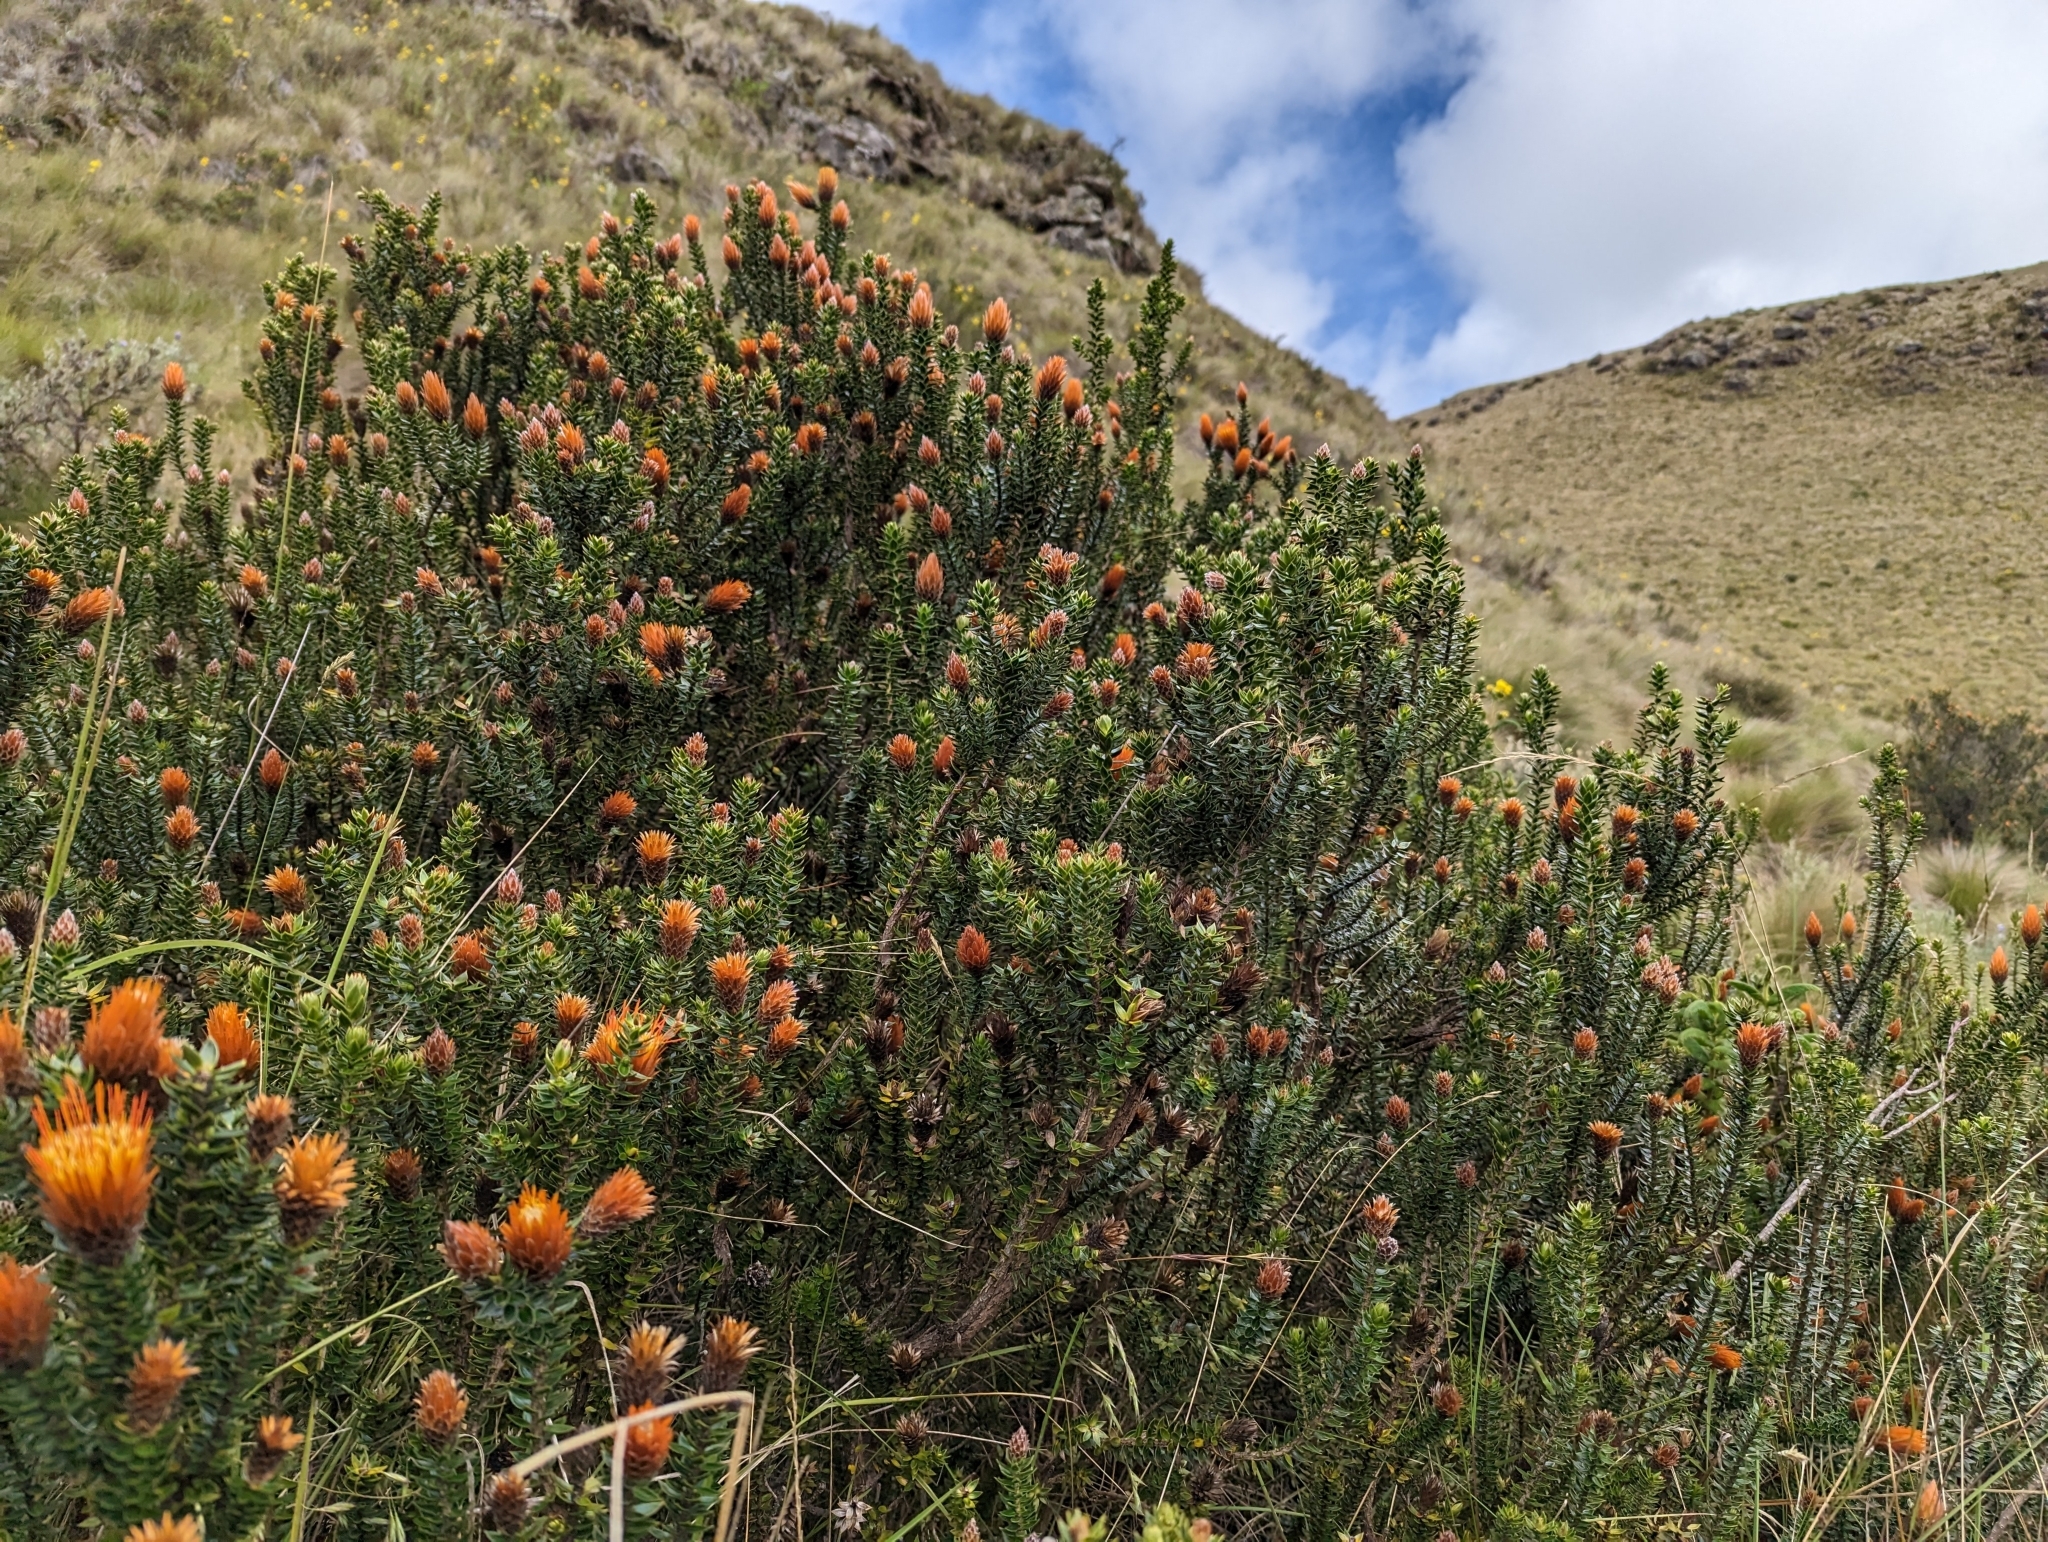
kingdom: Plantae
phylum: Tracheophyta
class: Magnoliopsida
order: Asterales
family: Asteraceae
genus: Chuquiraga
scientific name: Chuquiraga jussieui
